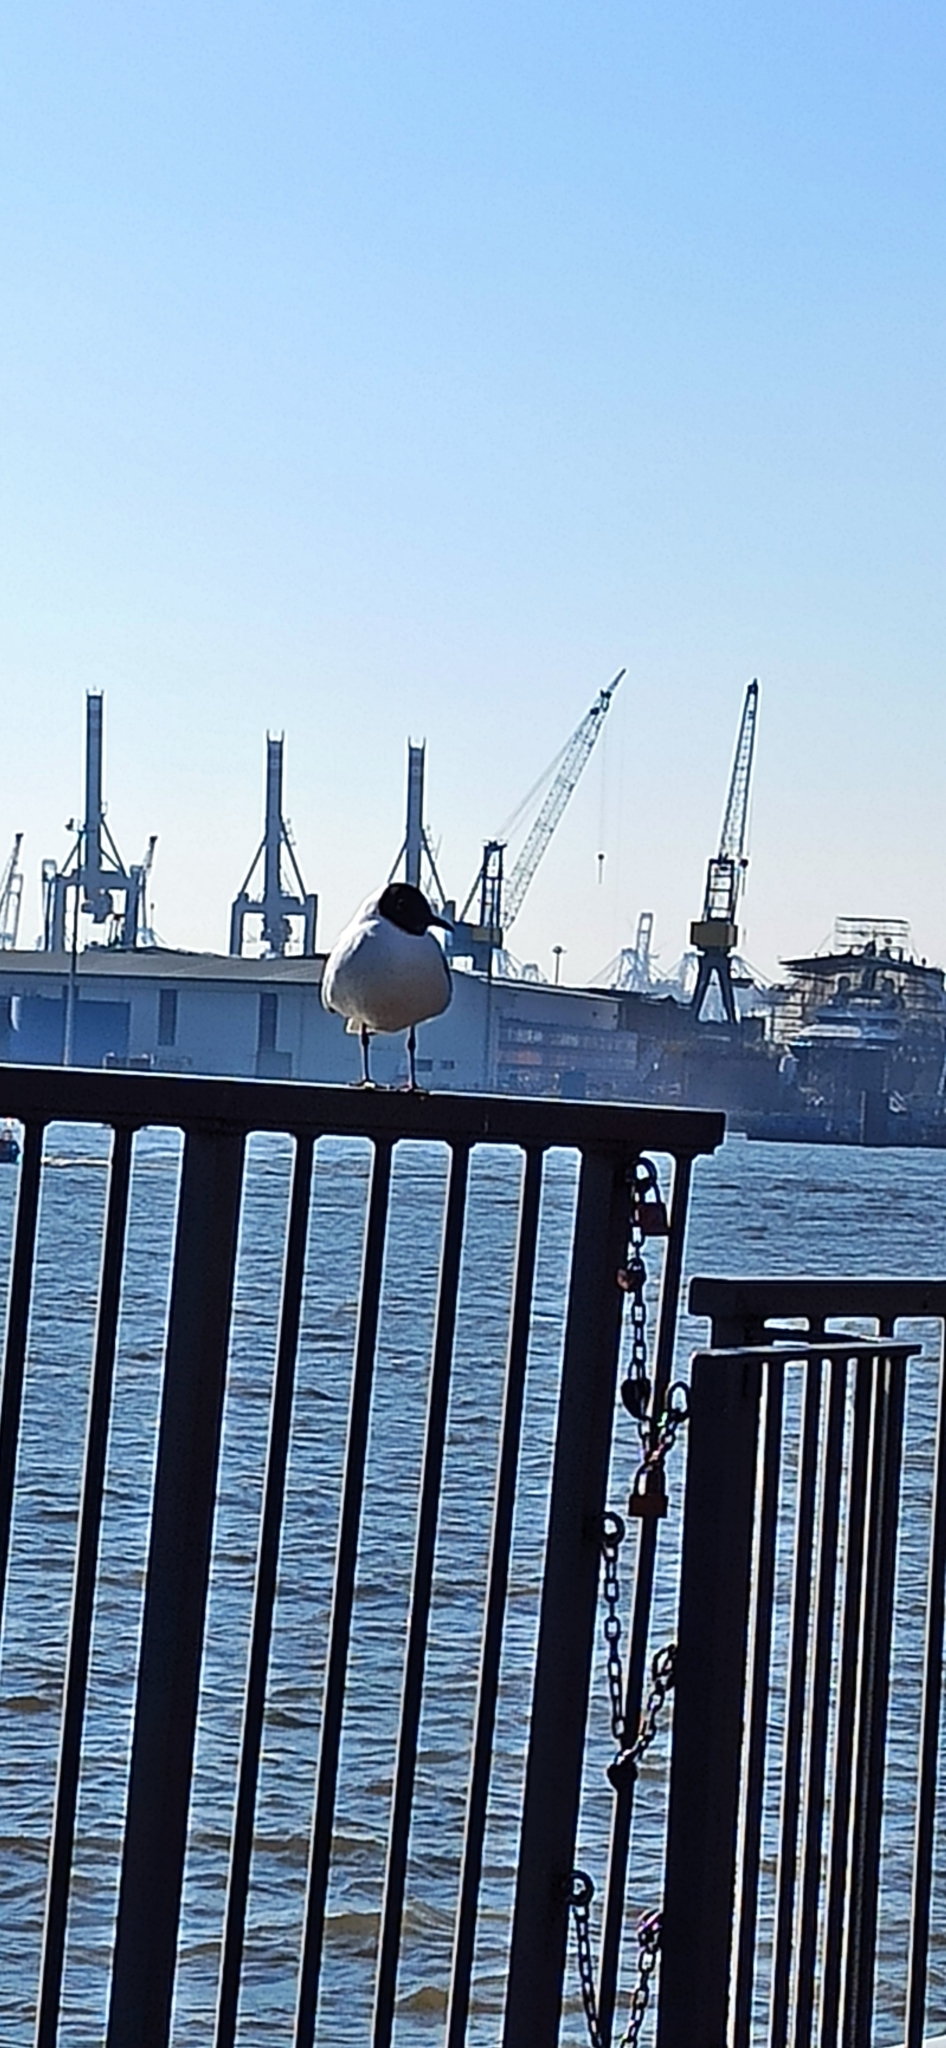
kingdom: Animalia
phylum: Chordata
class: Aves
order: Charadriiformes
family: Laridae
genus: Chroicocephalus
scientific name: Chroicocephalus ridibundus
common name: Black-headed gull
